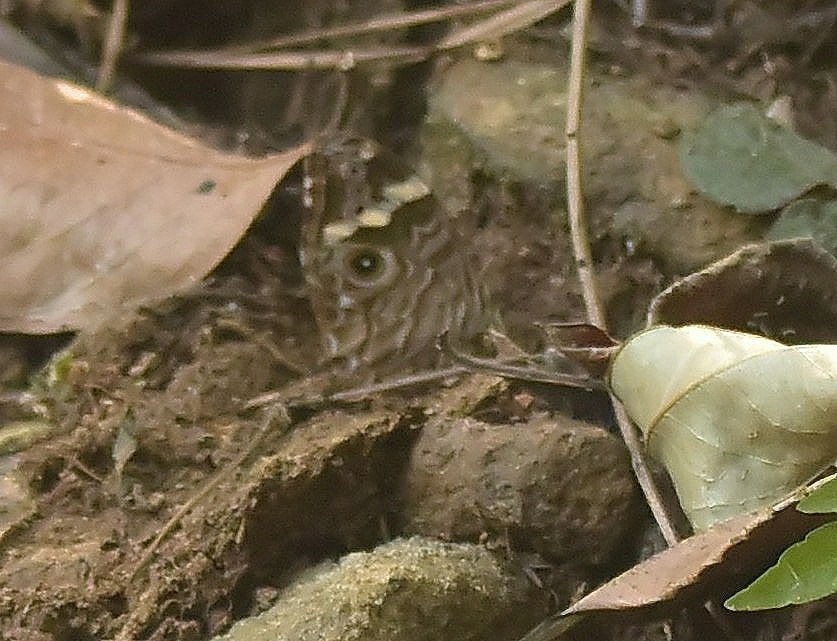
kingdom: Animalia
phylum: Arthropoda
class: Insecta
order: Lepidoptera
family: Nymphalidae
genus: Lethe
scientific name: Lethe rohria
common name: Common treebrown
